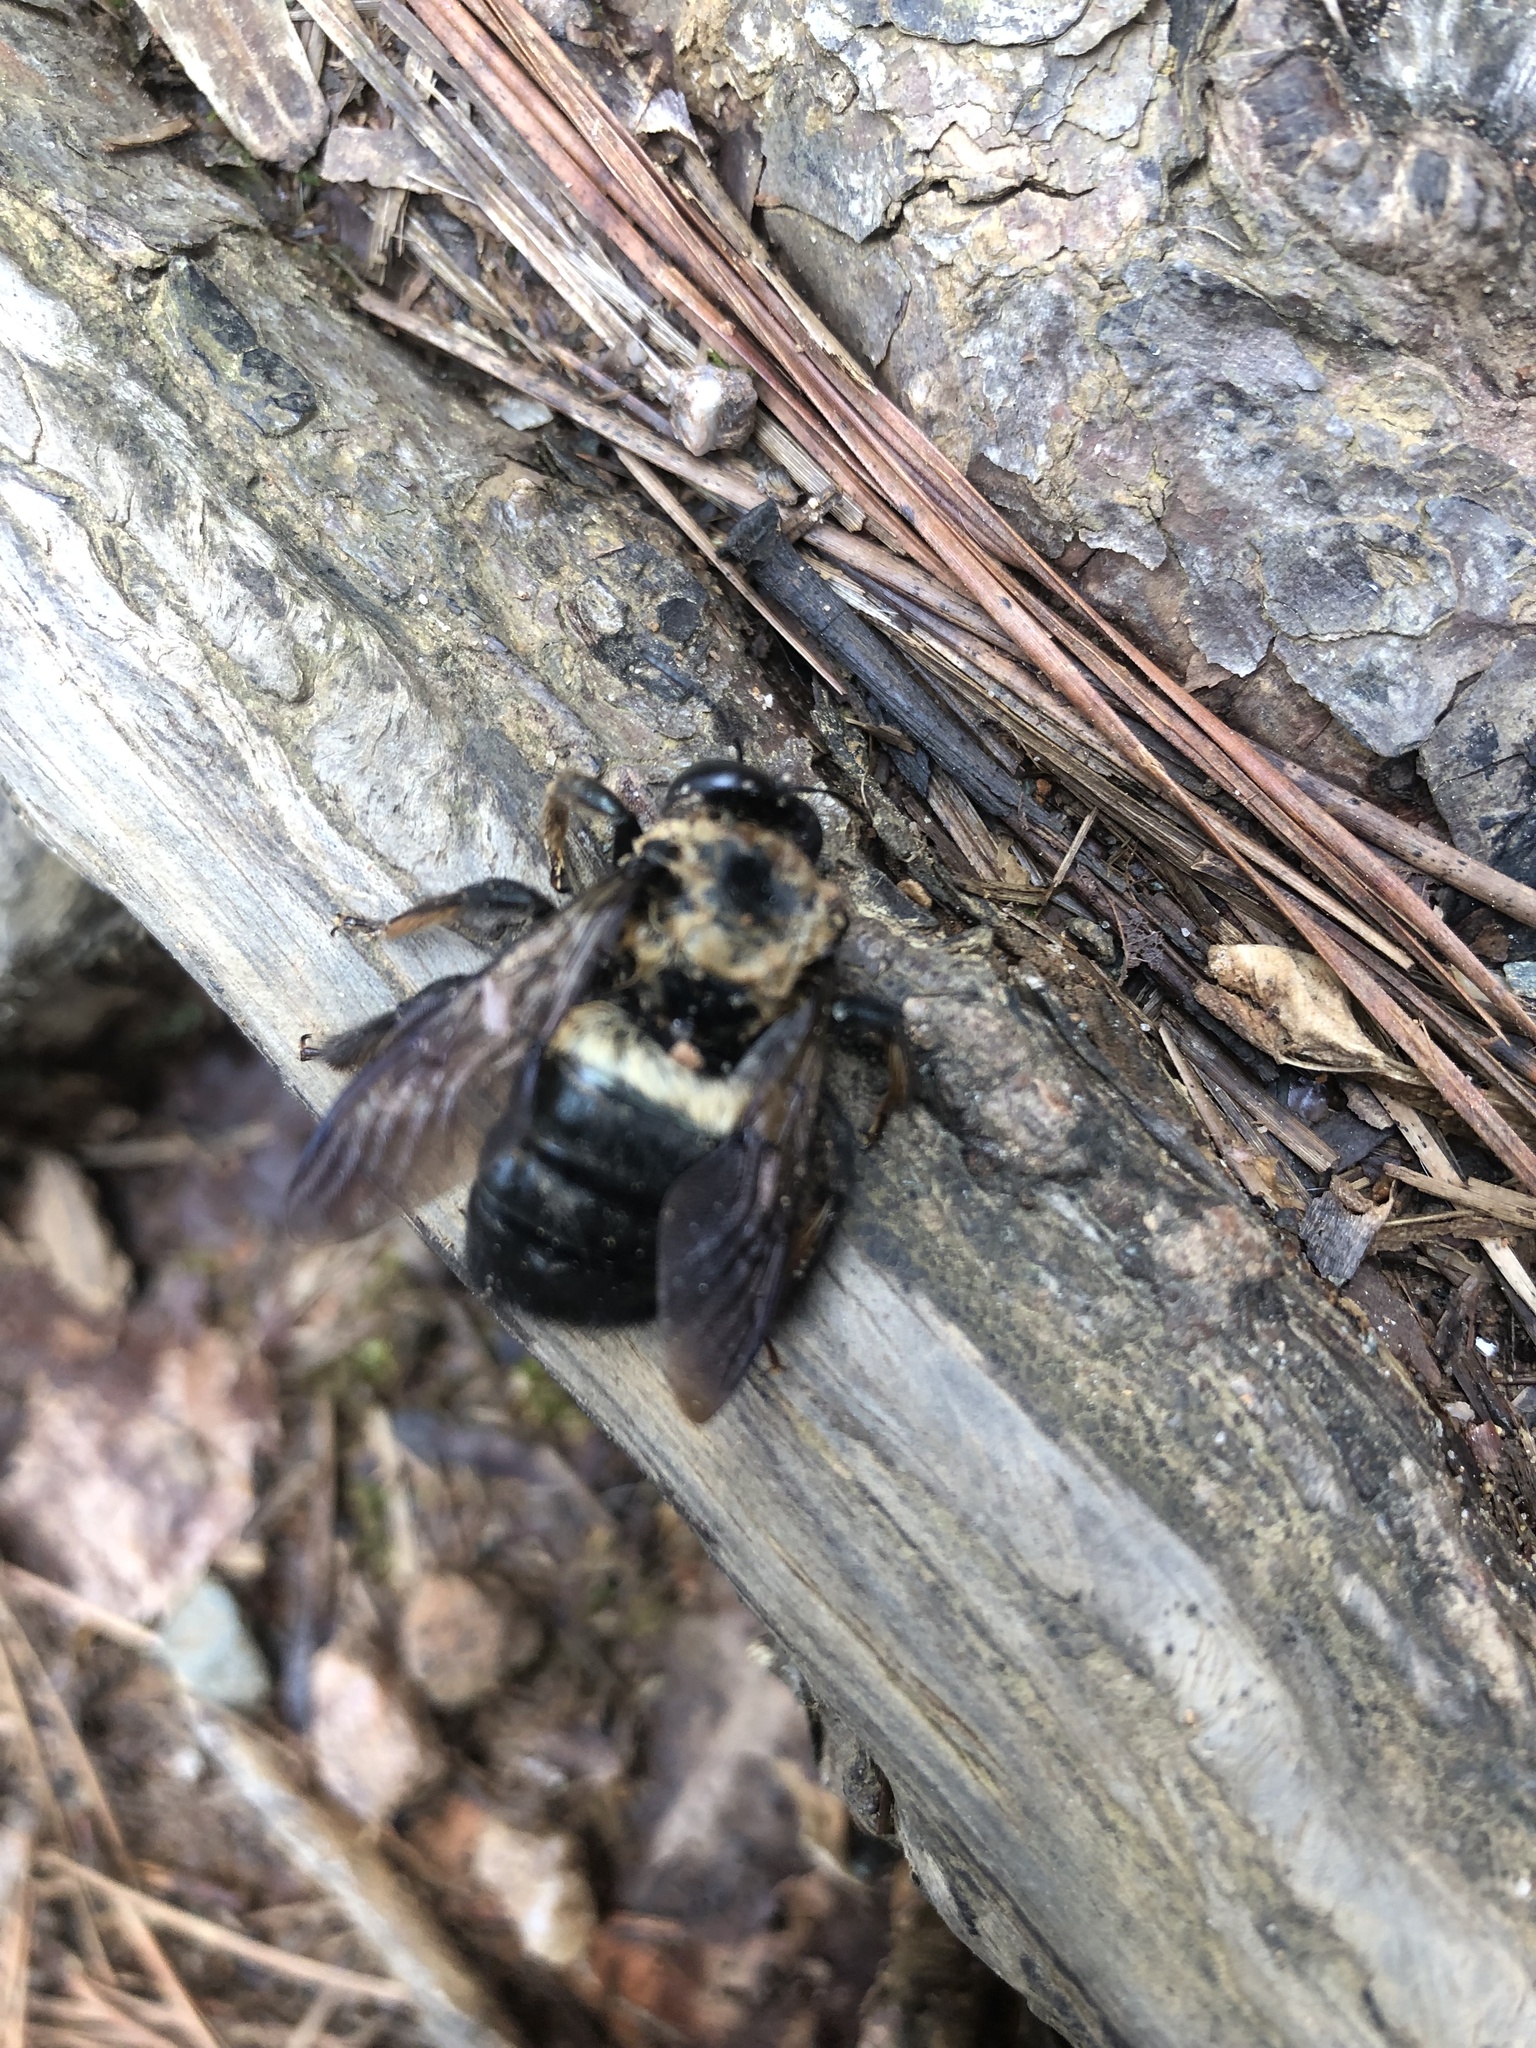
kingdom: Animalia
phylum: Arthropoda
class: Insecta
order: Hymenoptera
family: Apidae
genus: Xylocopa
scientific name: Xylocopa virginica
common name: Carpenter bee
